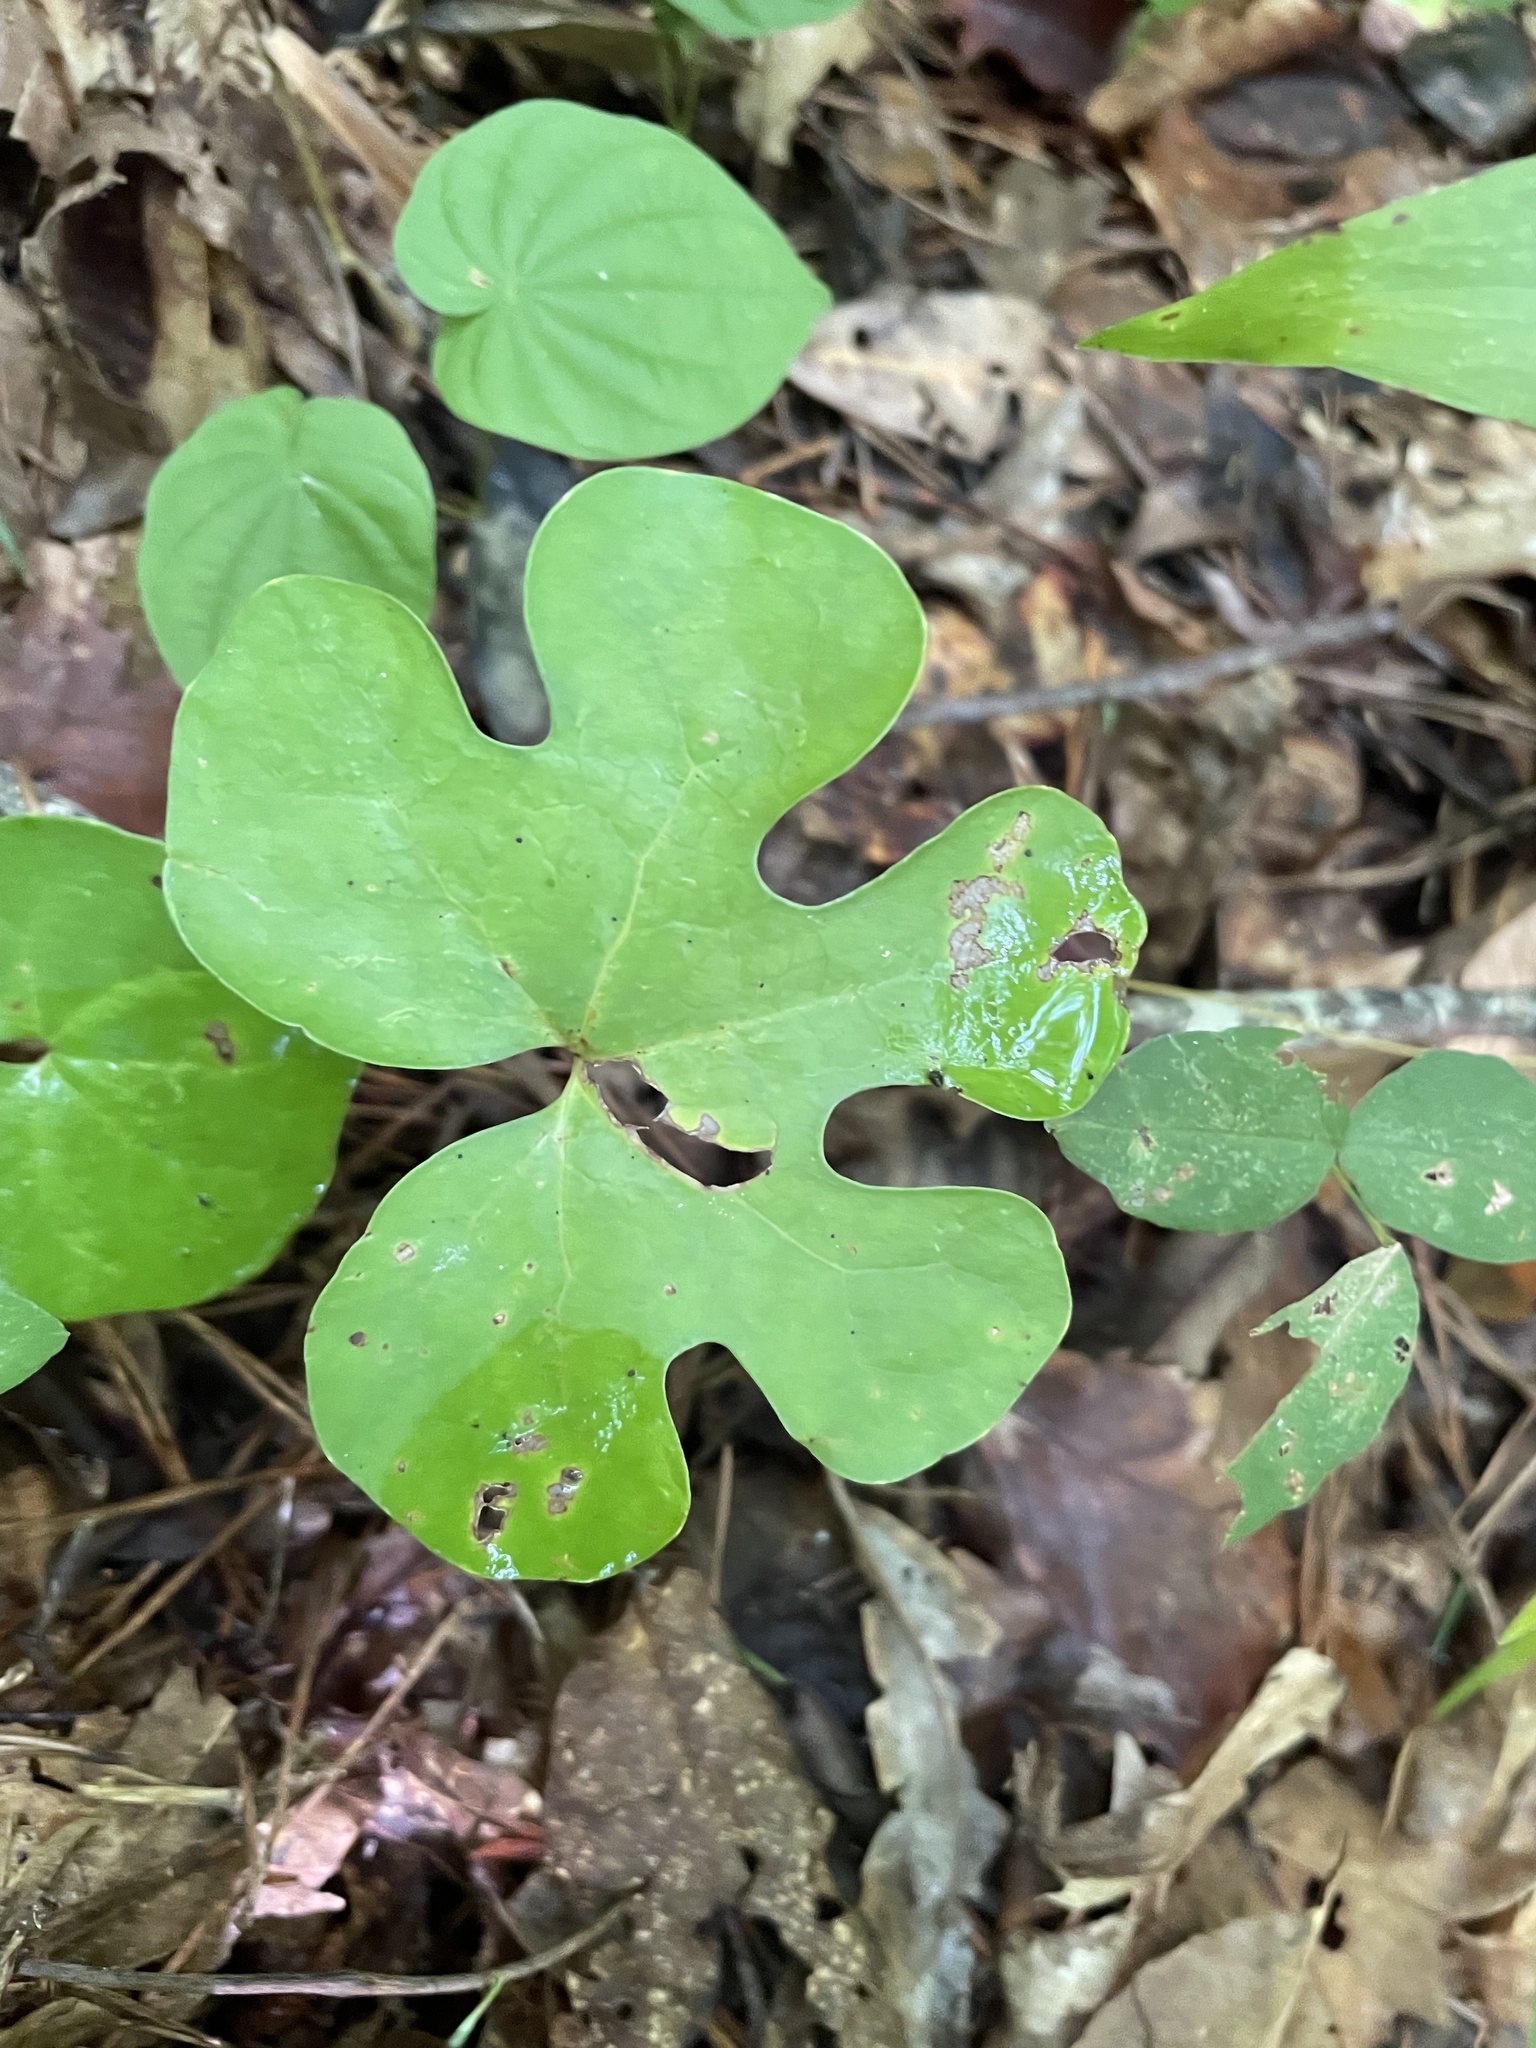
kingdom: Plantae
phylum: Tracheophyta
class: Magnoliopsida
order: Ranunculales
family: Papaveraceae
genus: Sanguinaria
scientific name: Sanguinaria canadensis
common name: Bloodroot
